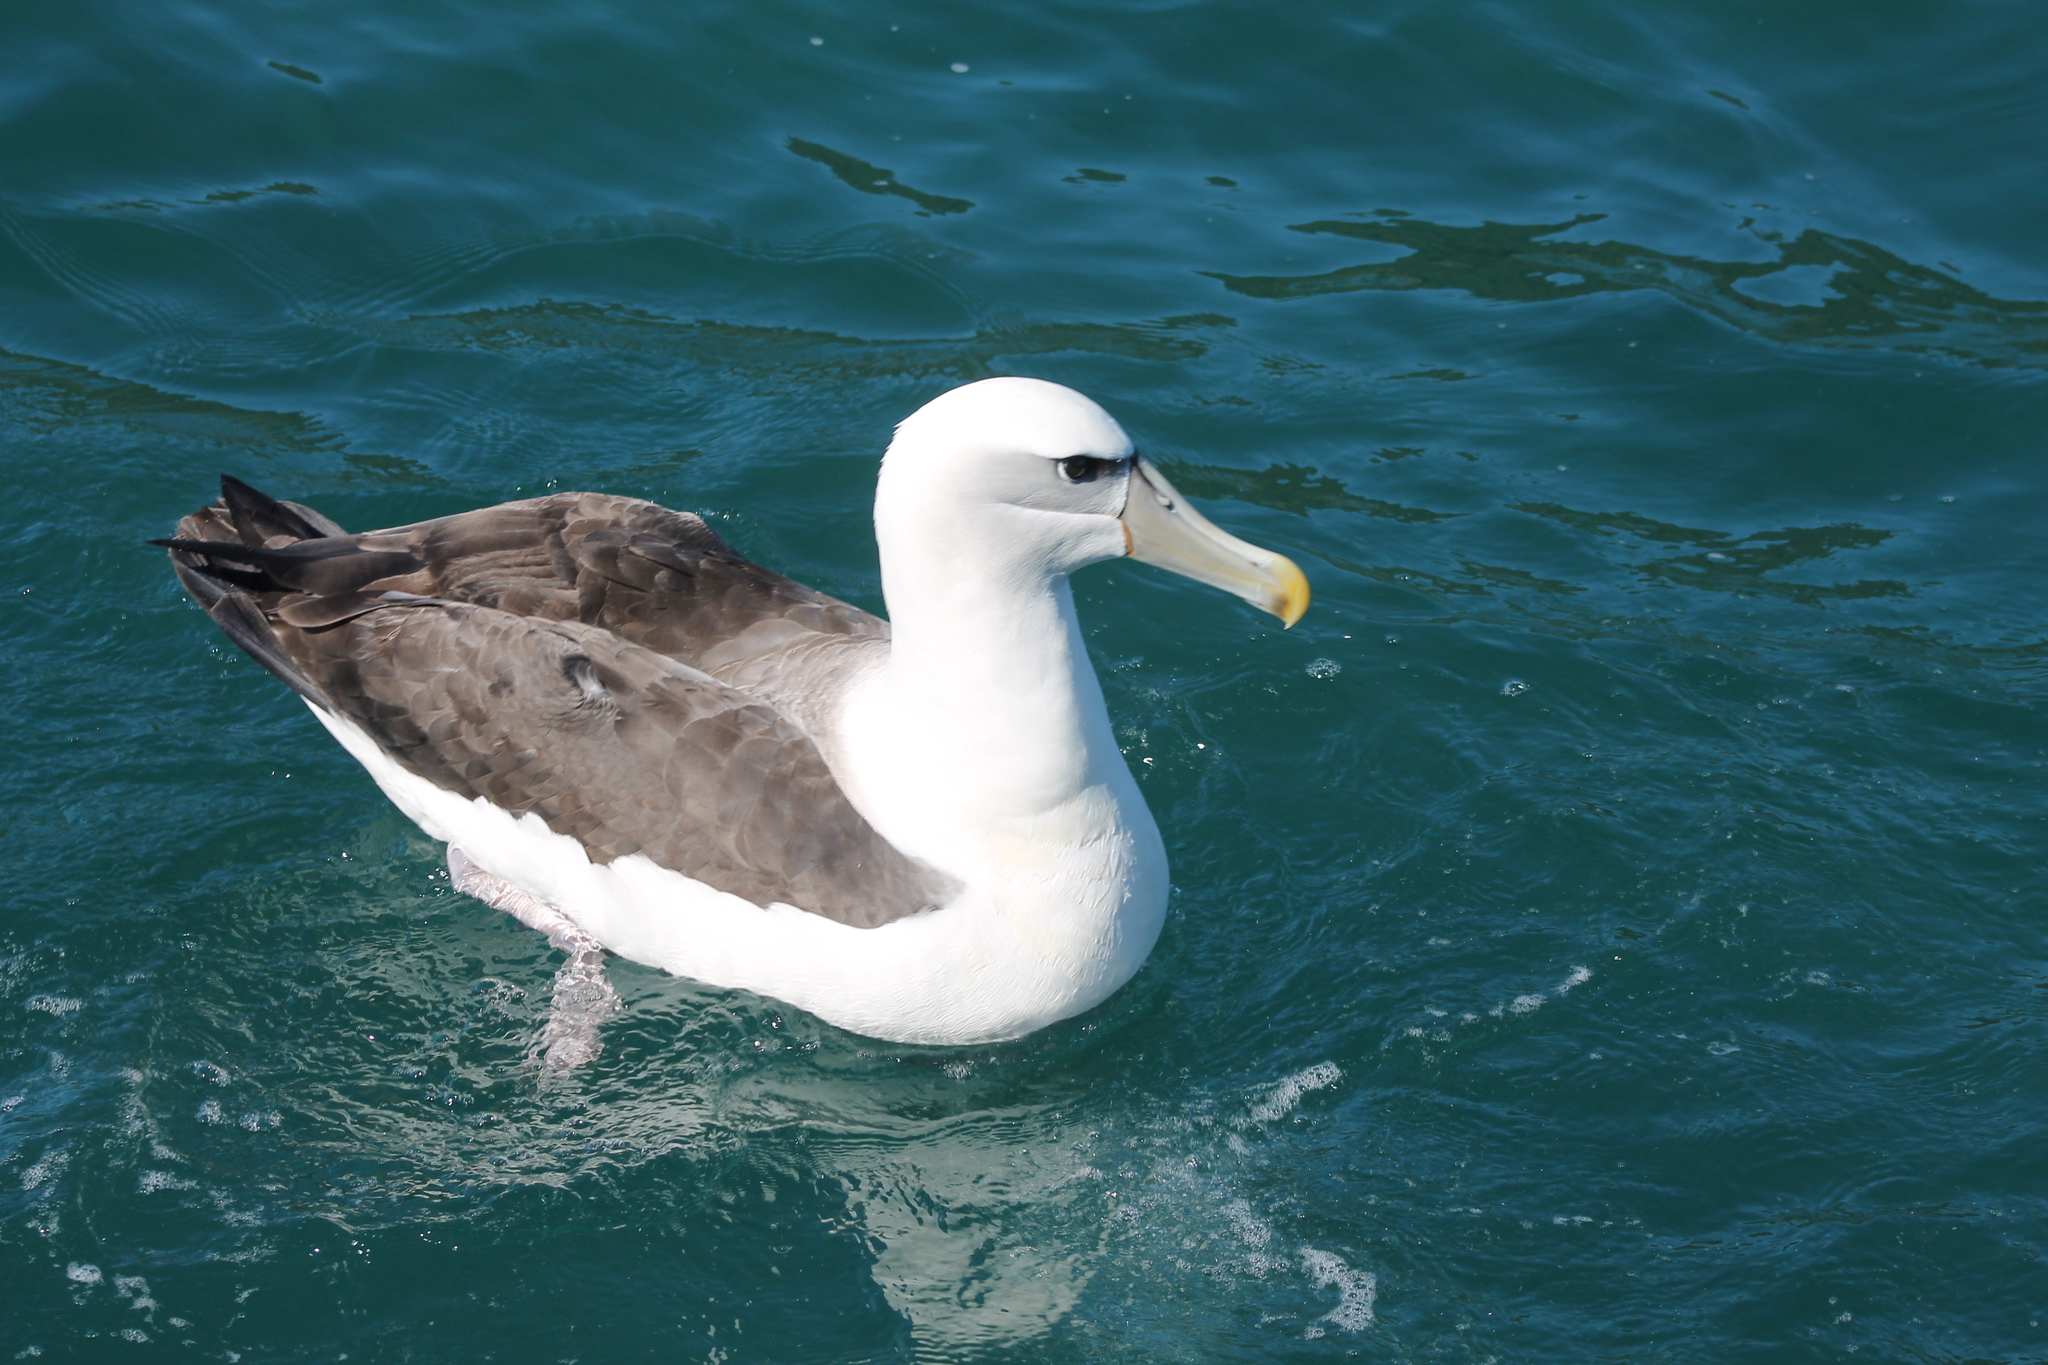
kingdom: Animalia
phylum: Chordata
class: Aves
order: Procellariiformes
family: Diomedeidae
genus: Thalassarche
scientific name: Thalassarche cauta
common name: Shy albatross
